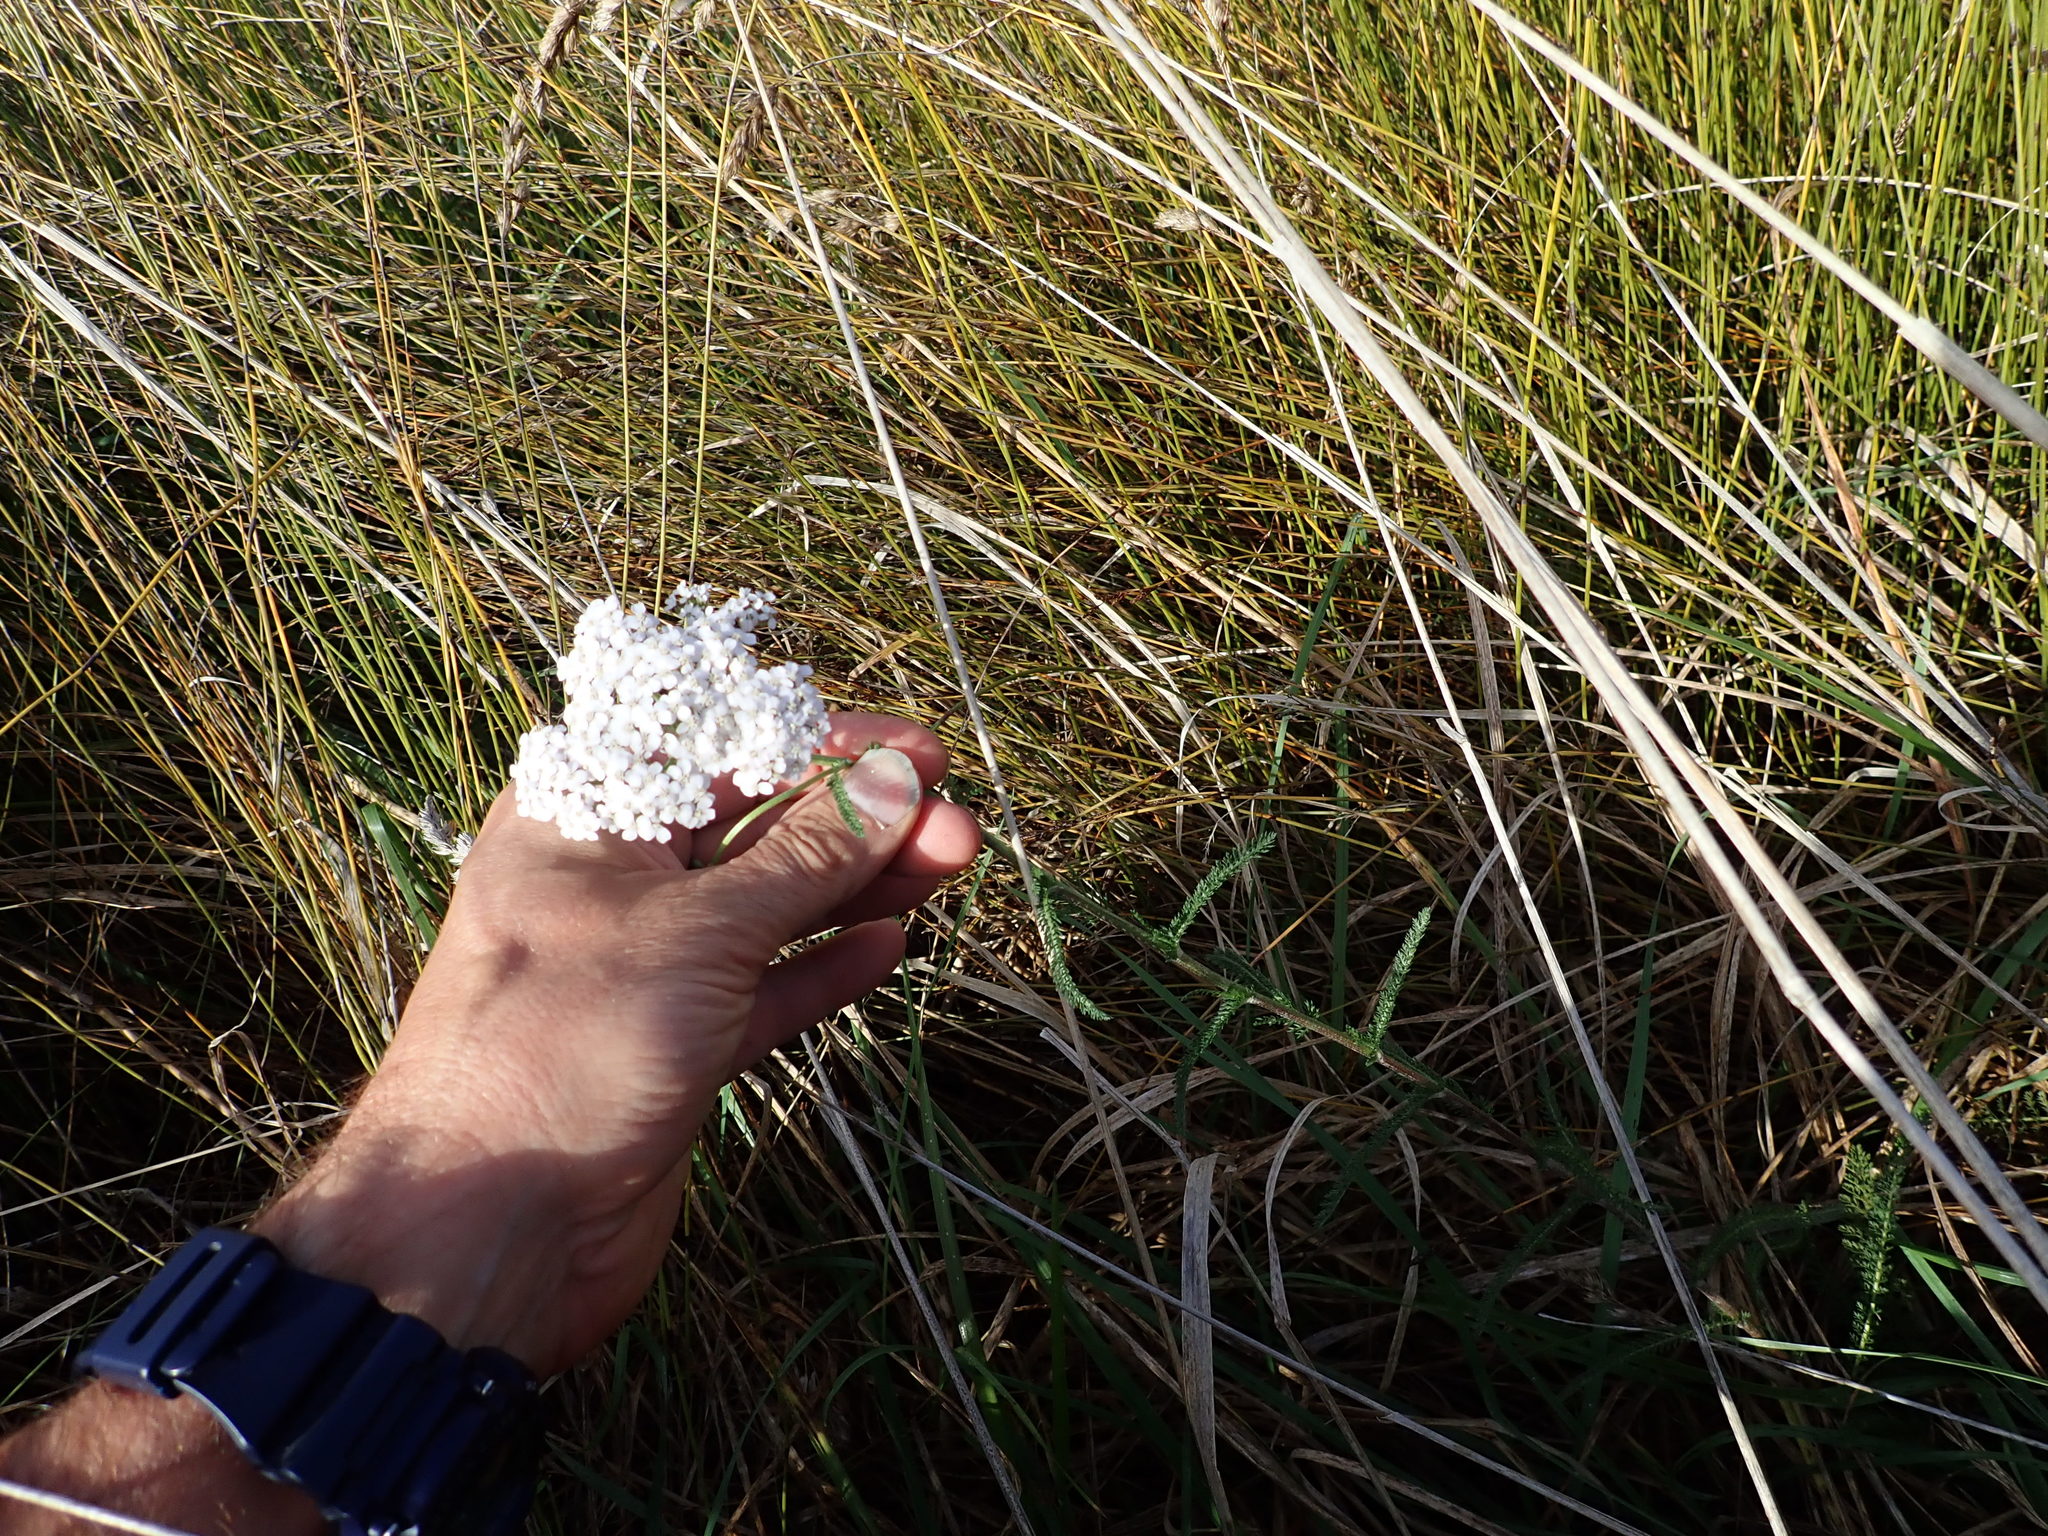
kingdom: Plantae
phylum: Tracheophyta
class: Magnoliopsida
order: Asterales
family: Asteraceae
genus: Achillea
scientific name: Achillea millefolium
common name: Yarrow
